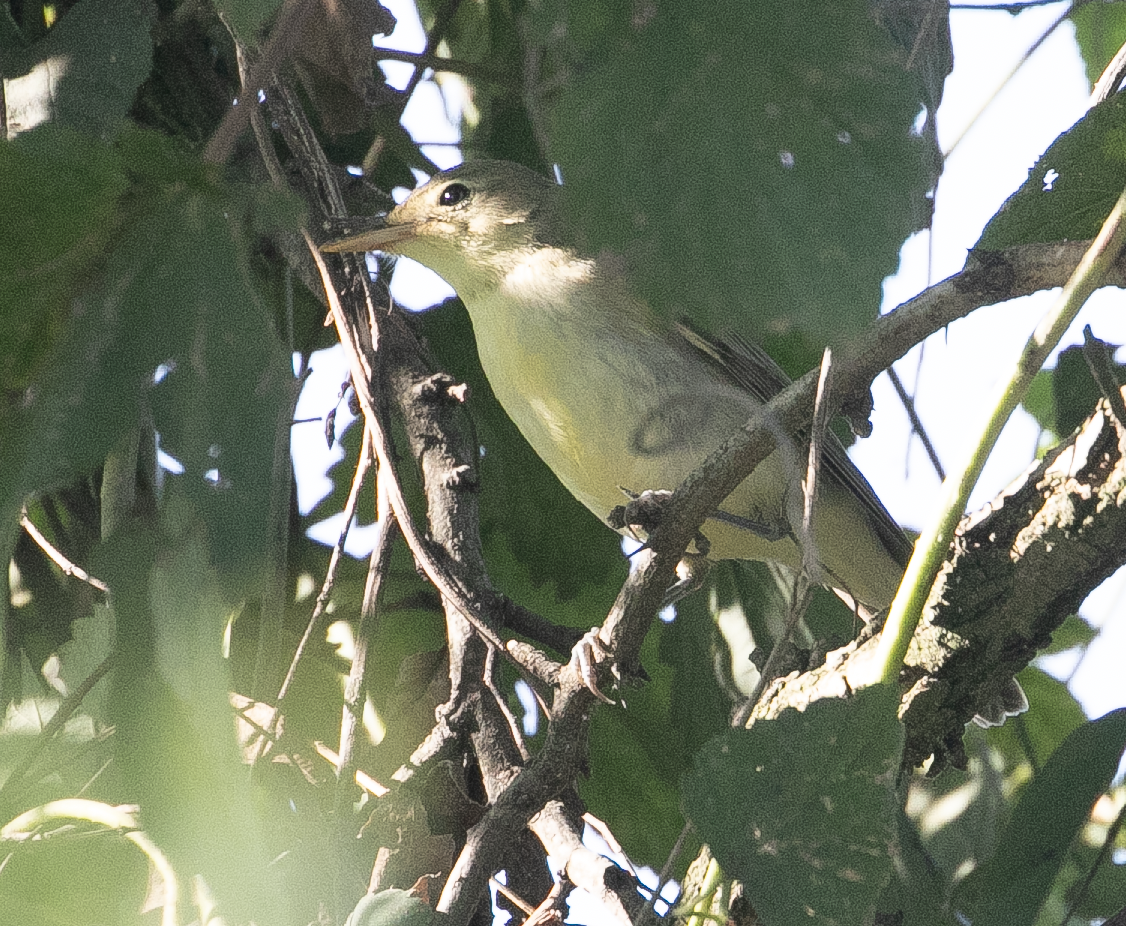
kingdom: Animalia
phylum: Chordata
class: Aves
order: Passeriformes
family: Acrocephalidae
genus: Hippolais
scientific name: Hippolais icterina
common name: Icterine warbler
